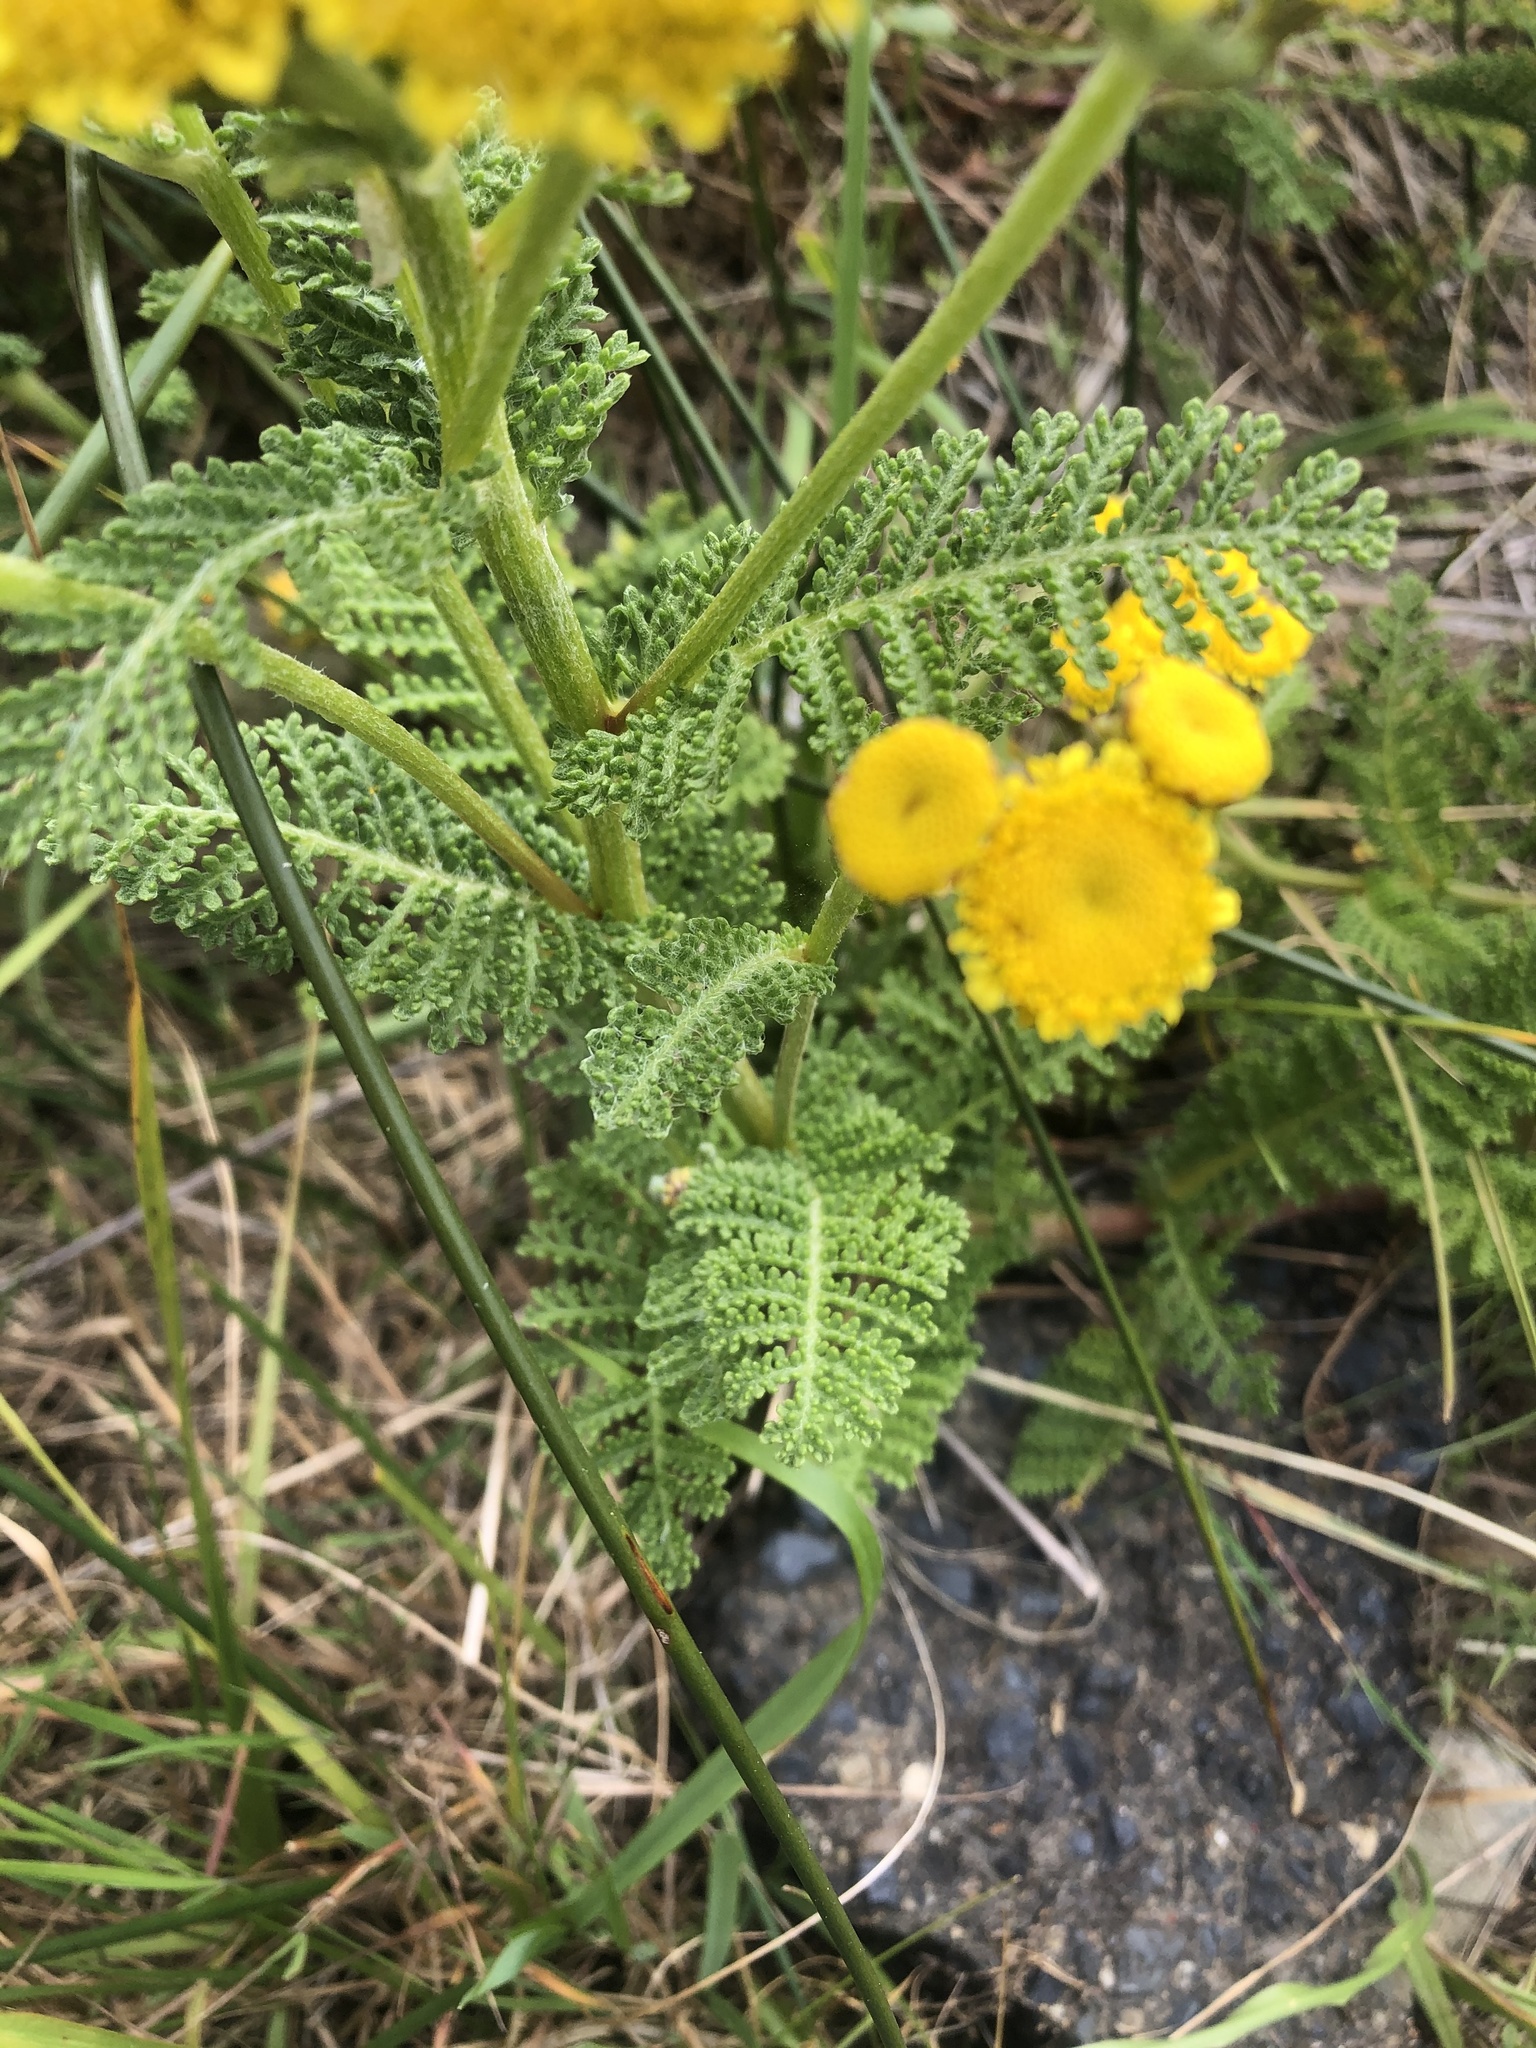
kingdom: Plantae
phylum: Tracheophyta
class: Magnoliopsida
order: Asterales
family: Asteraceae
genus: Tanacetum
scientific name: Tanacetum bipinnatum
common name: Dwarf tansy
